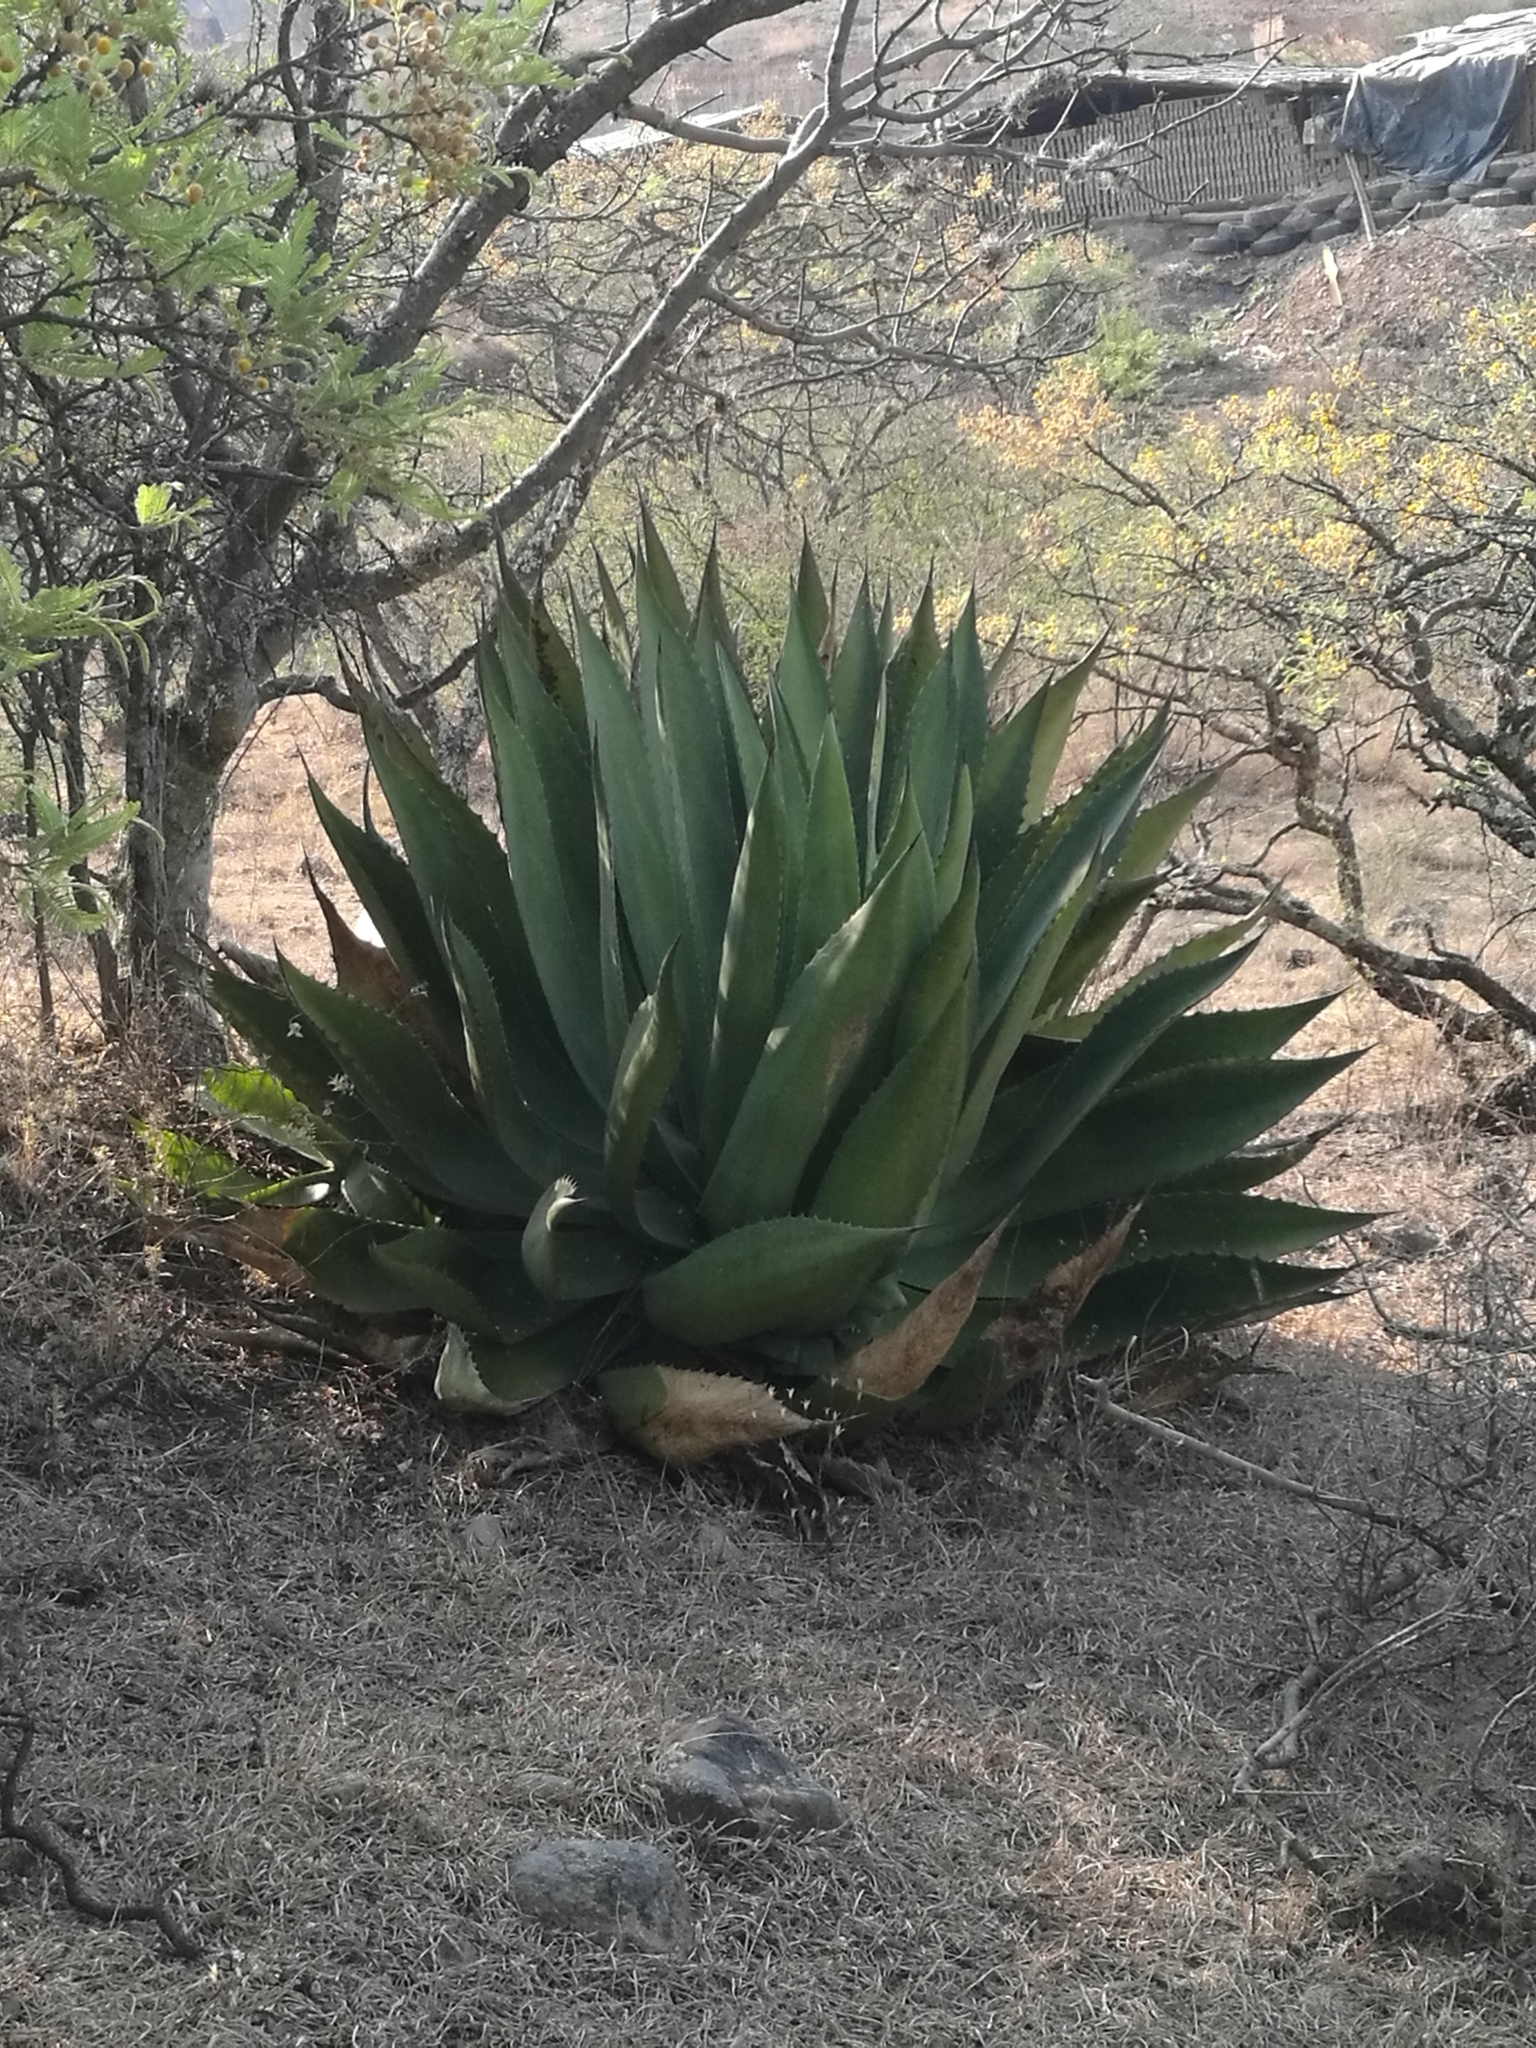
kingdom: Plantae
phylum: Tracheophyta
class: Liliopsida
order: Asparagales
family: Asparagaceae
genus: Agave
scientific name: Agave inaequidens
